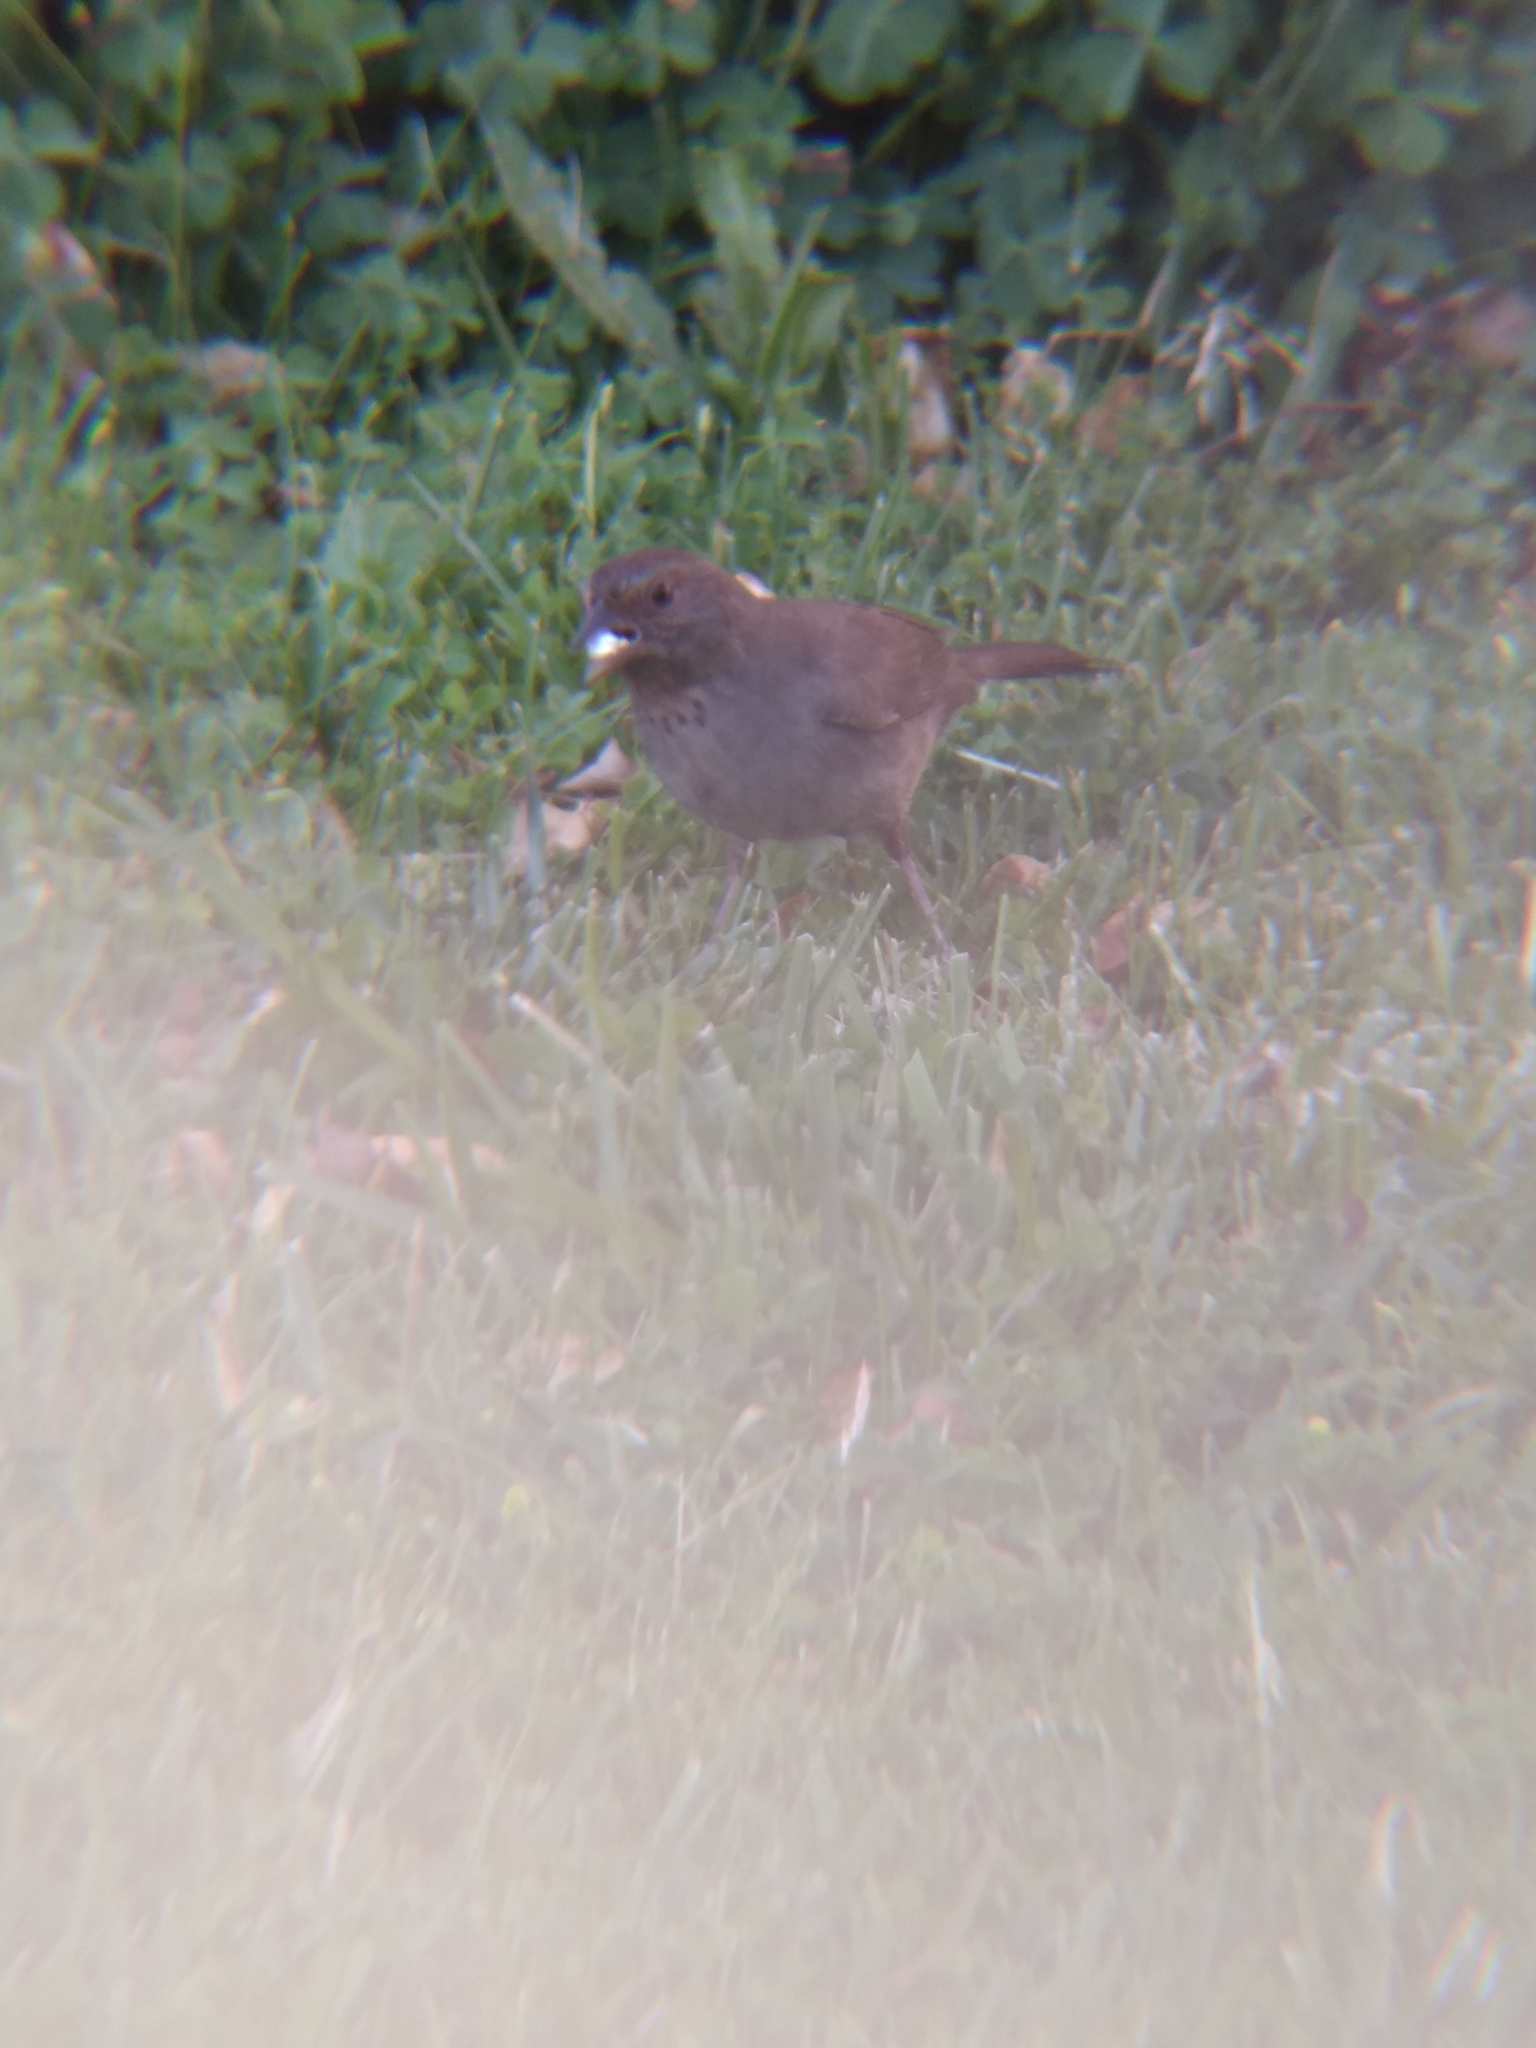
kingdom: Animalia
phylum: Chordata
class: Aves
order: Passeriformes
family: Passerellidae
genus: Melozone
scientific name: Melozone crissalis
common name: California towhee
